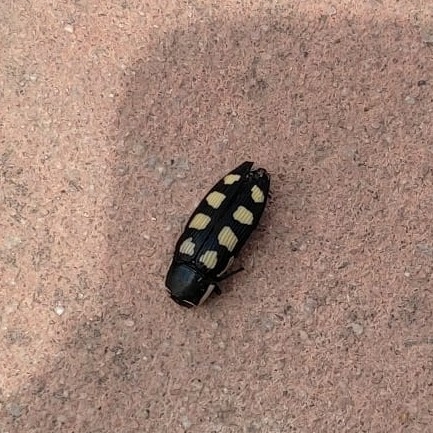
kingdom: Animalia
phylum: Arthropoda
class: Insecta
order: Coleoptera
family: Buprestidae
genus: Buprestis
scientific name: Buprestis octoguttata
